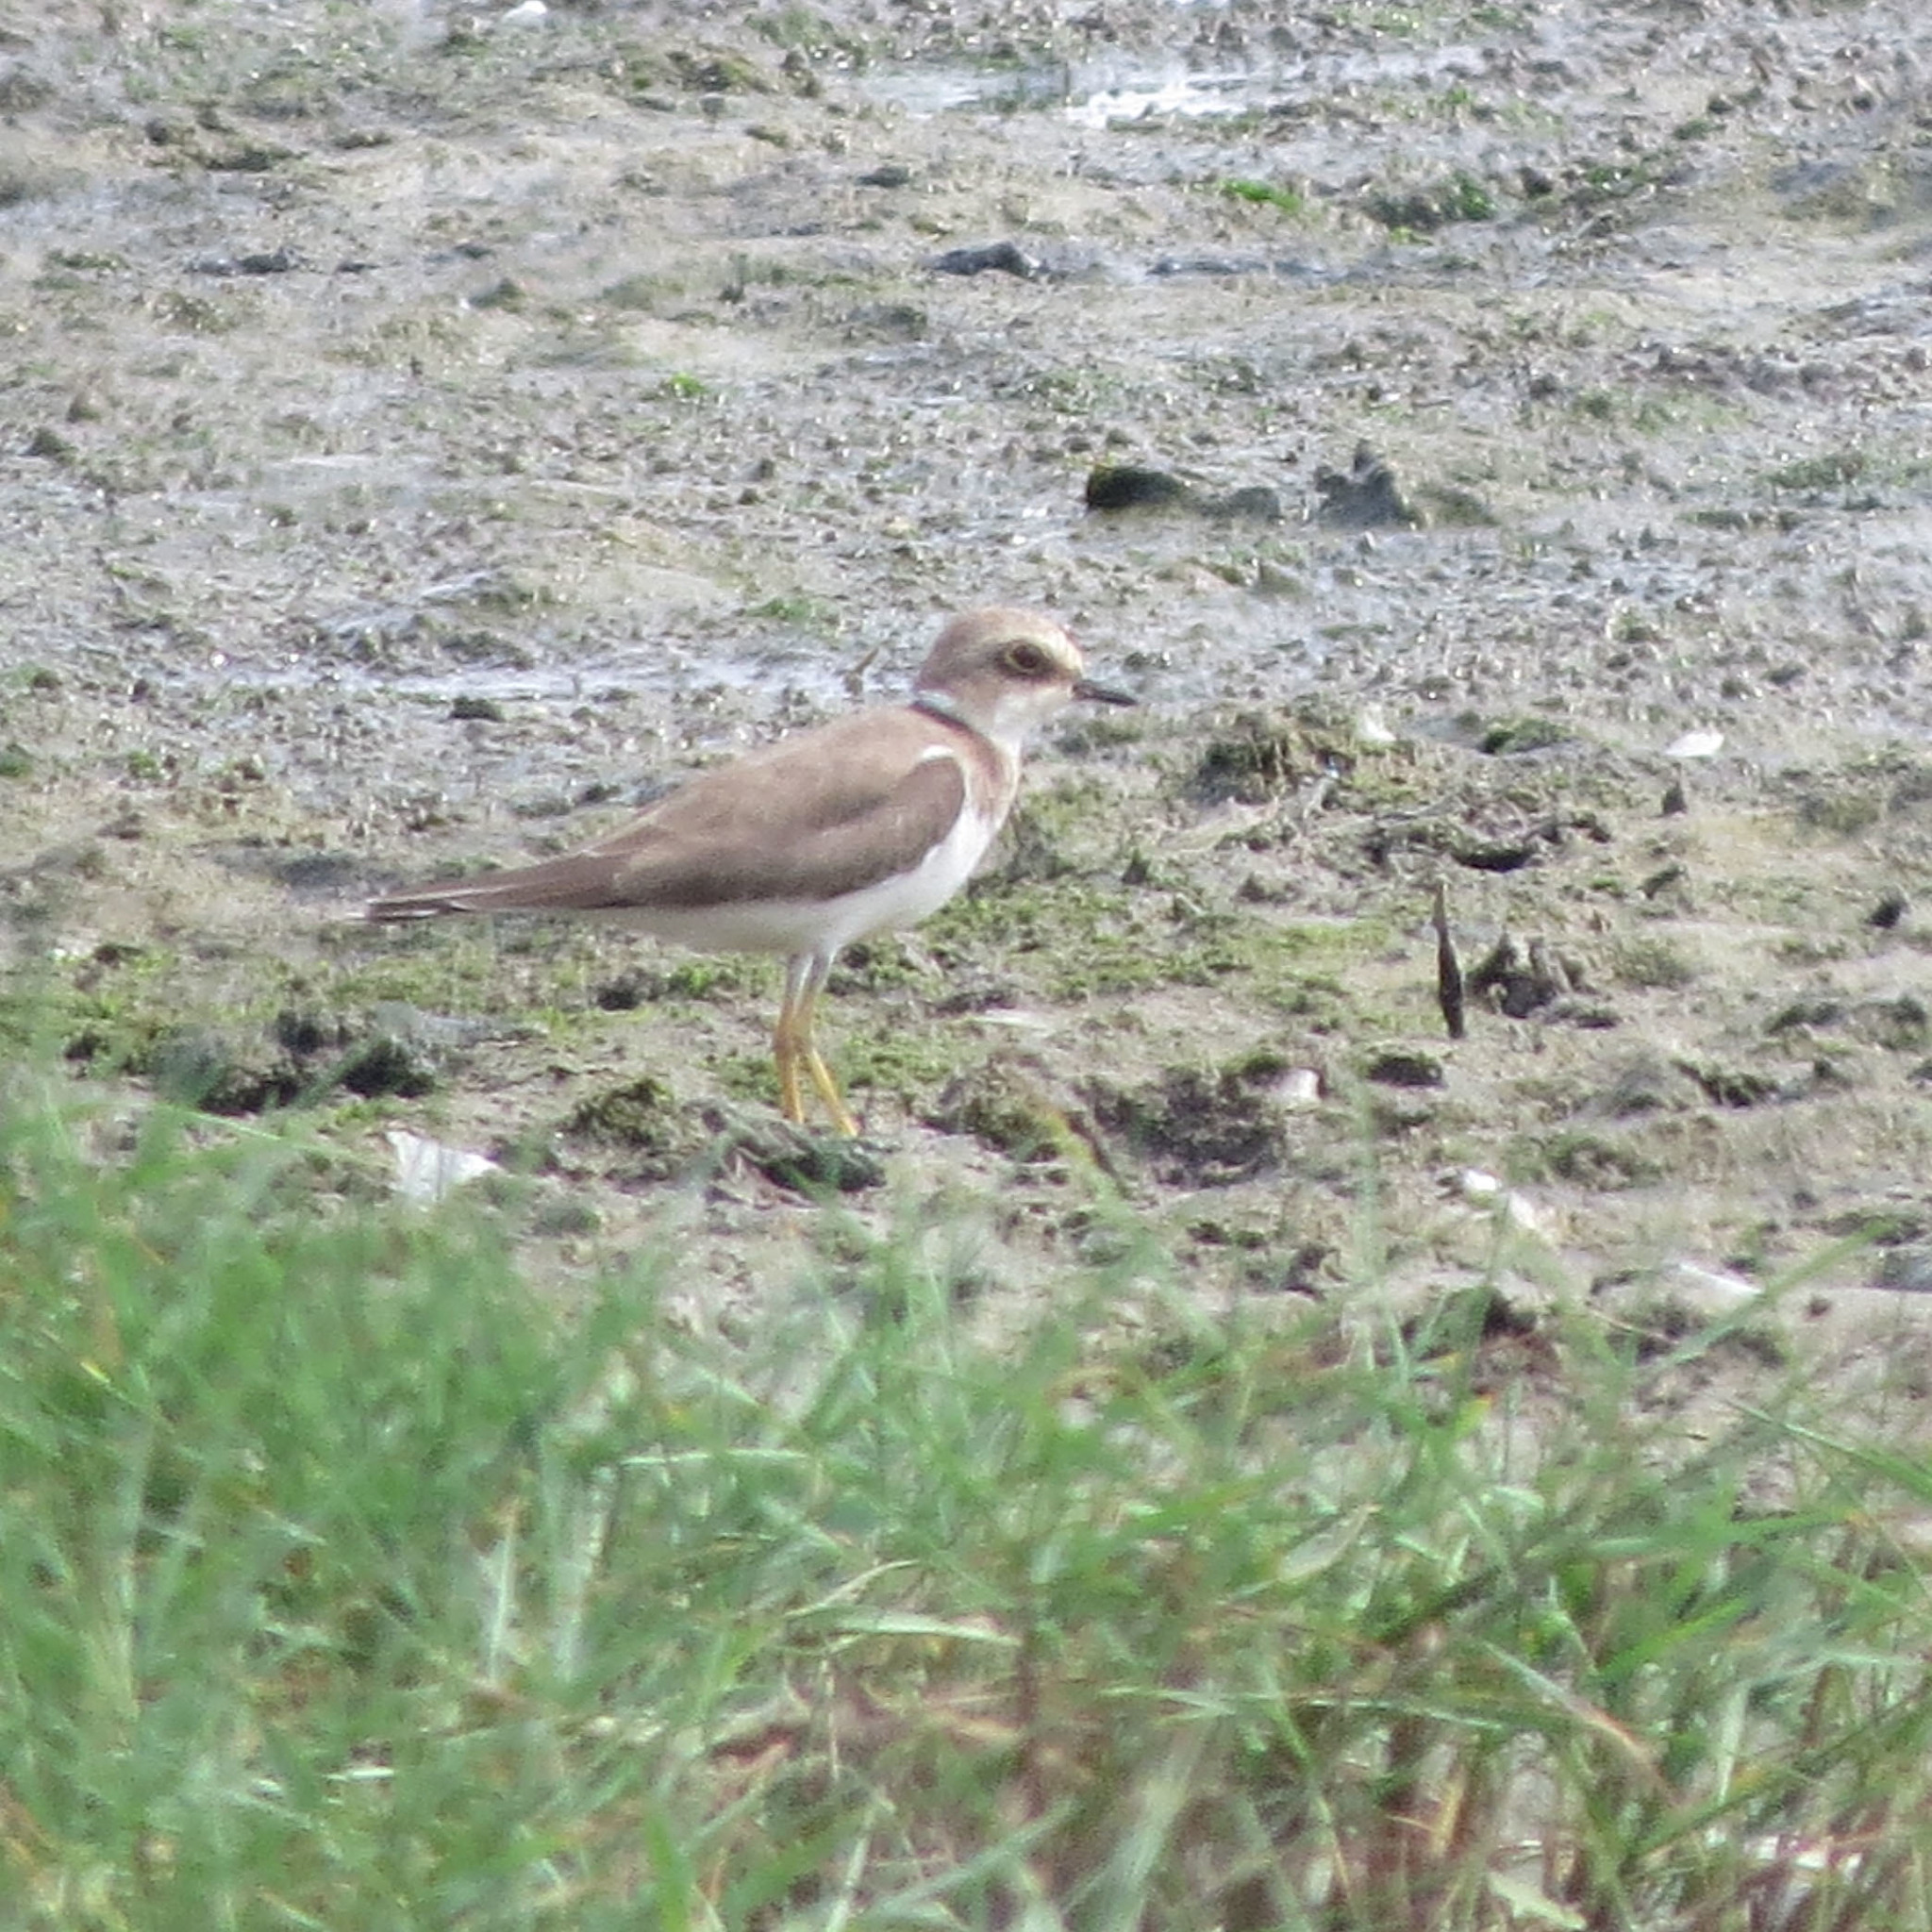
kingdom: Animalia
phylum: Chordata
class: Aves
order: Charadriiformes
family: Charadriidae
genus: Charadrius
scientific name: Charadrius dubius
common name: Little ringed plover
